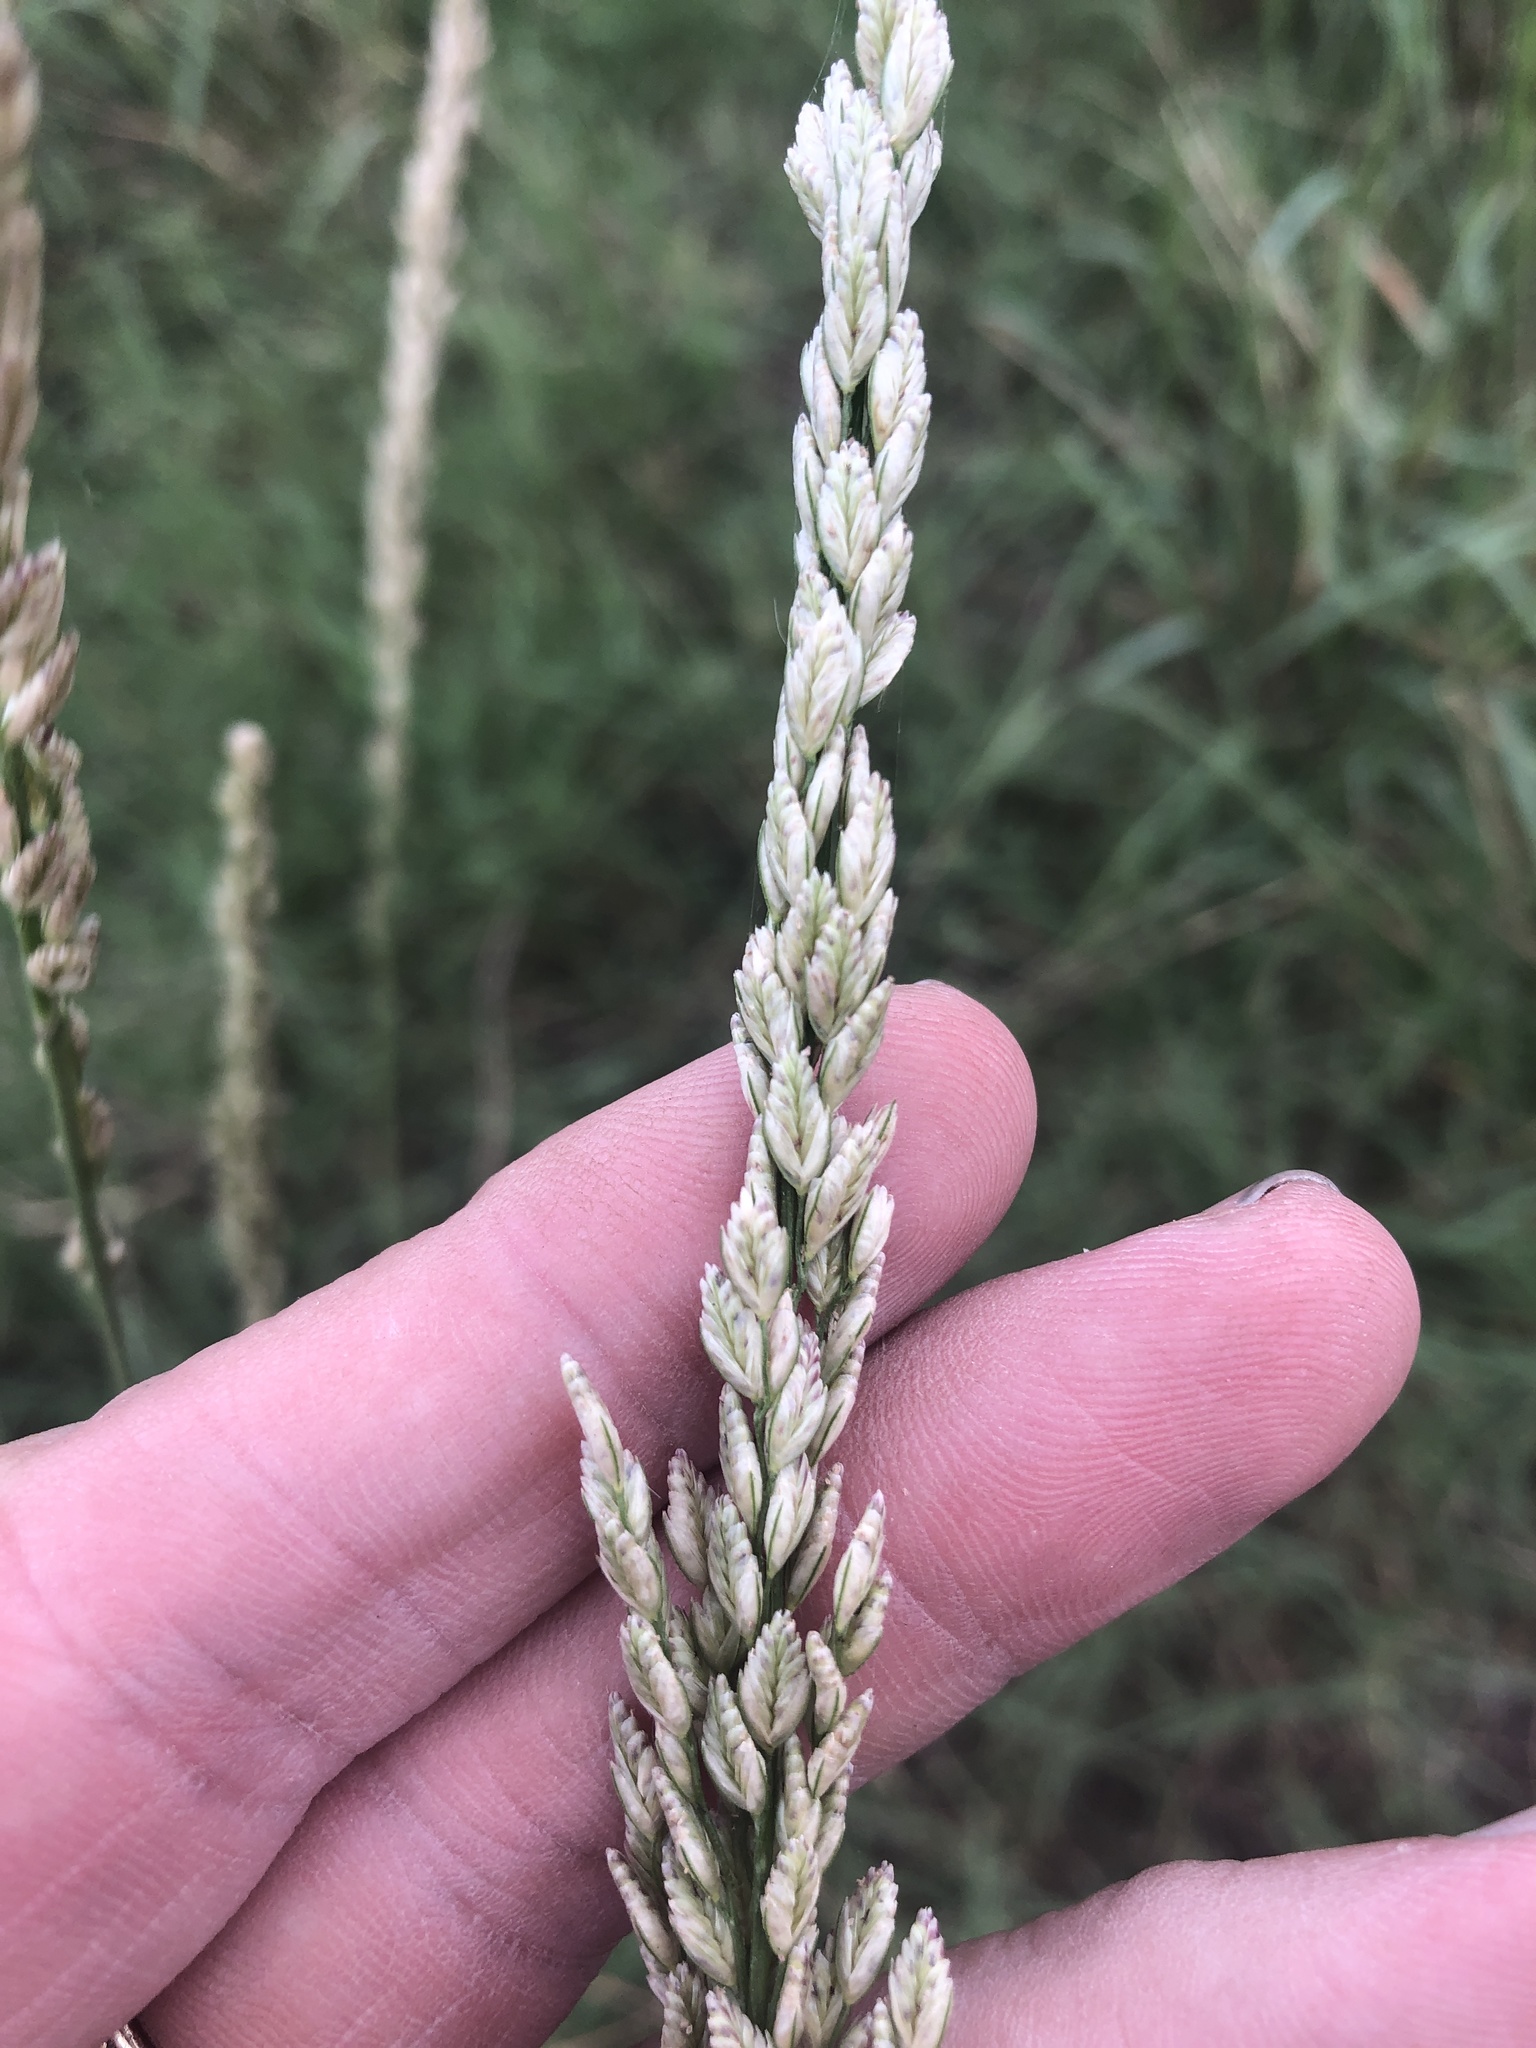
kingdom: Plantae
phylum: Tracheophyta
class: Liliopsida
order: Poales
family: Poaceae
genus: Tridens
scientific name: Tridens albescens
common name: White tridens
